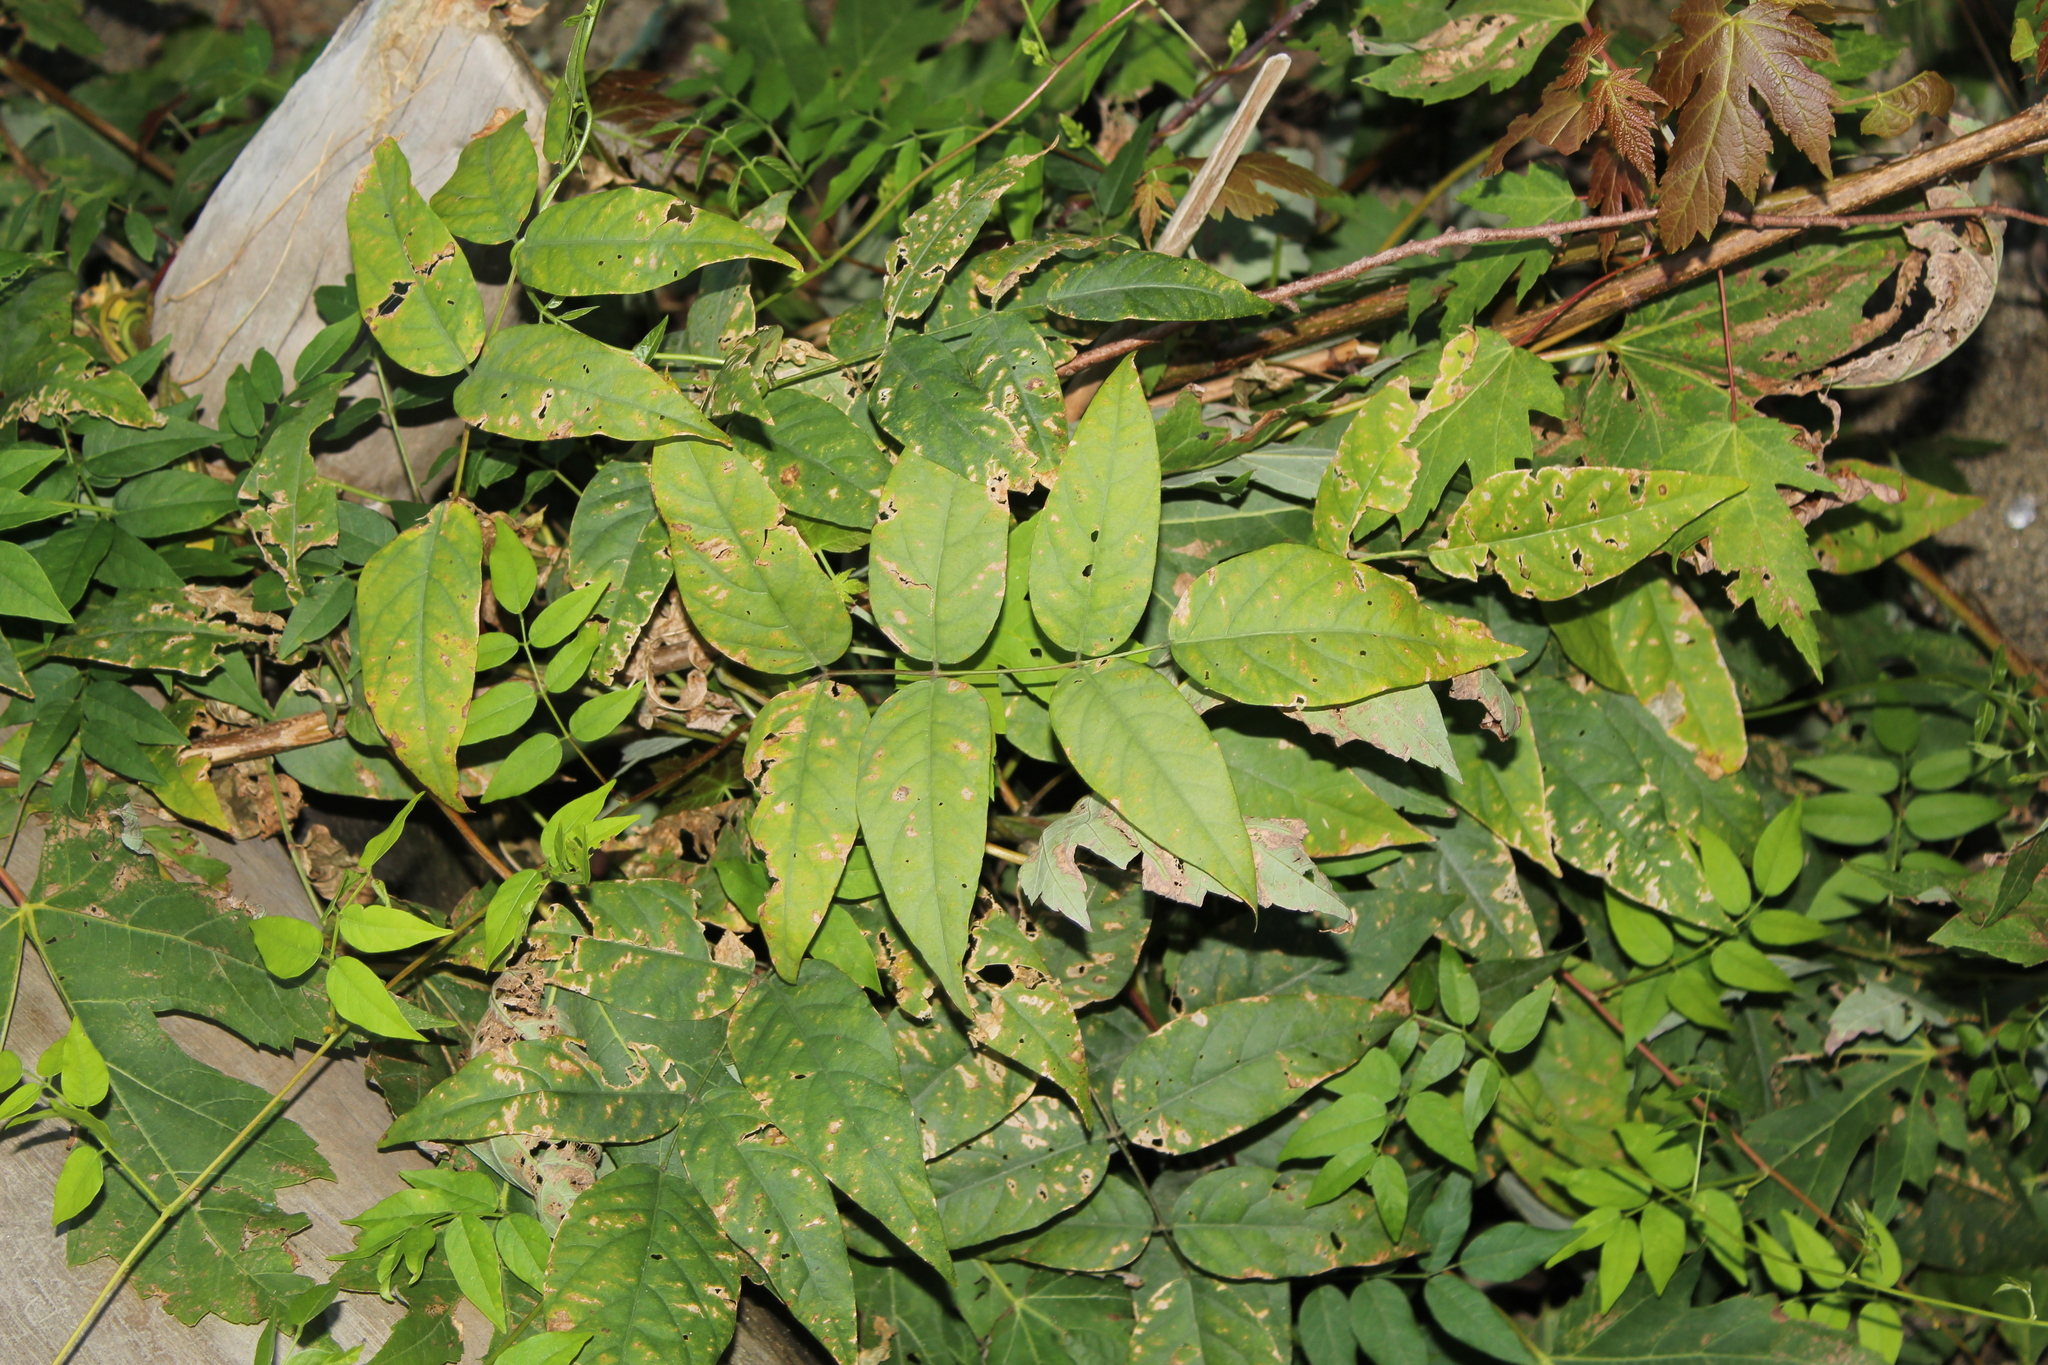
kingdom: Plantae
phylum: Tracheophyta
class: Magnoliopsida
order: Fabales
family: Fabaceae
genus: Apios
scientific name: Apios americana
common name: American potato-bean
